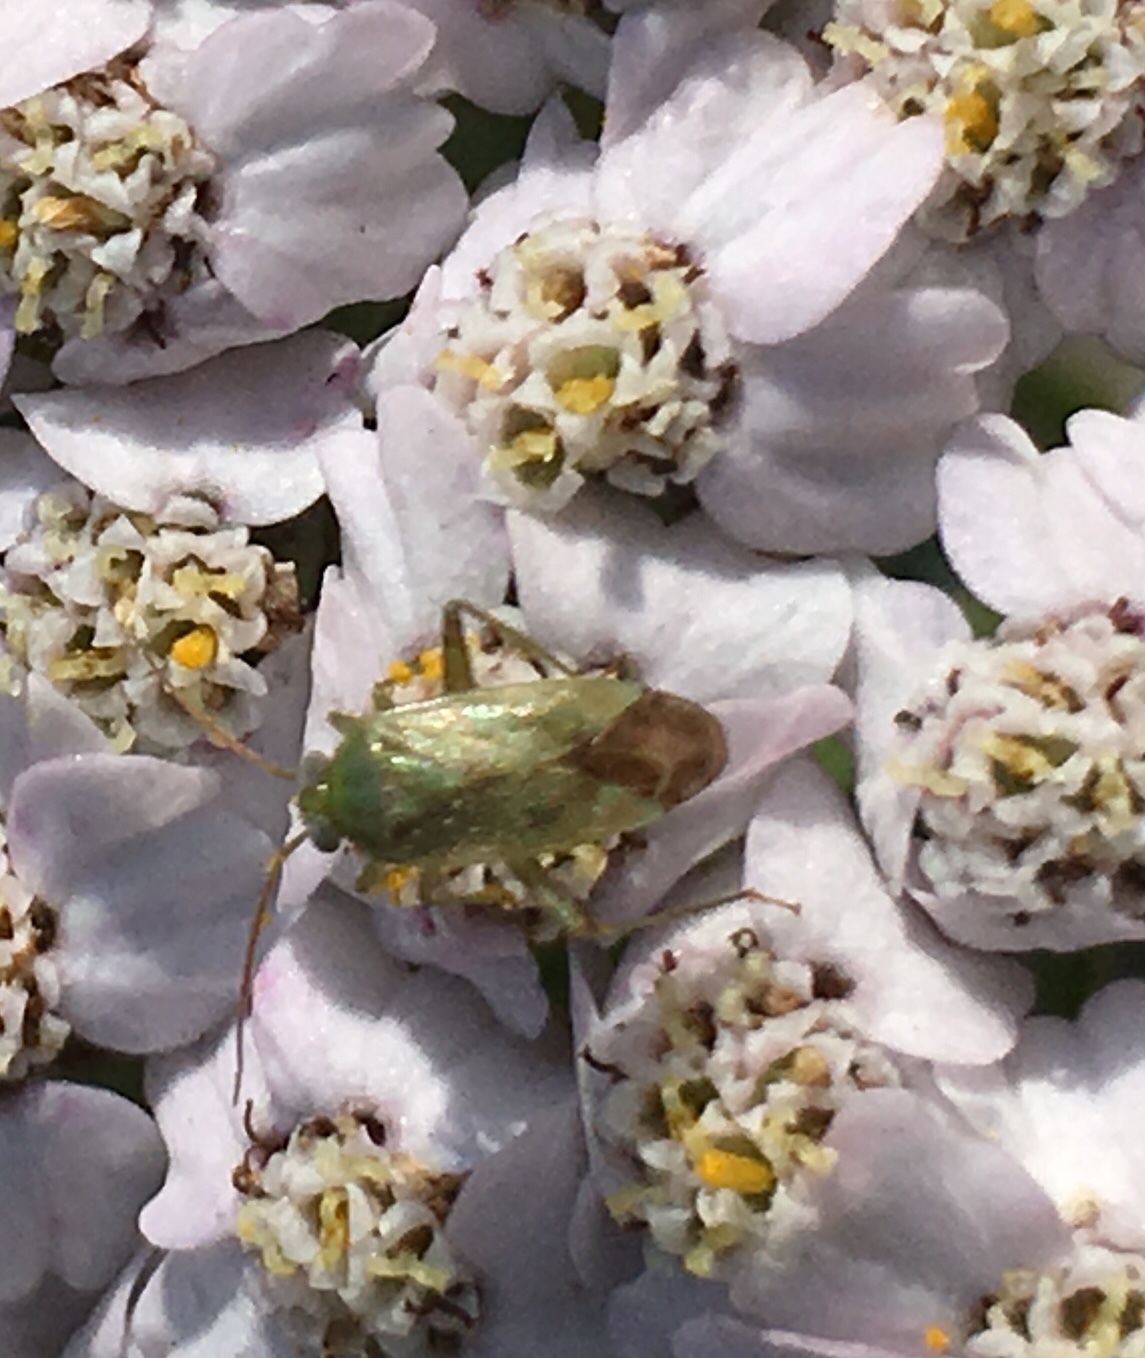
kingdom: Animalia
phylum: Arthropoda
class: Insecta
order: Hemiptera
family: Miridae
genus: Taylorilygus
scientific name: Taylorilygus apicalis
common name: Plant bug
